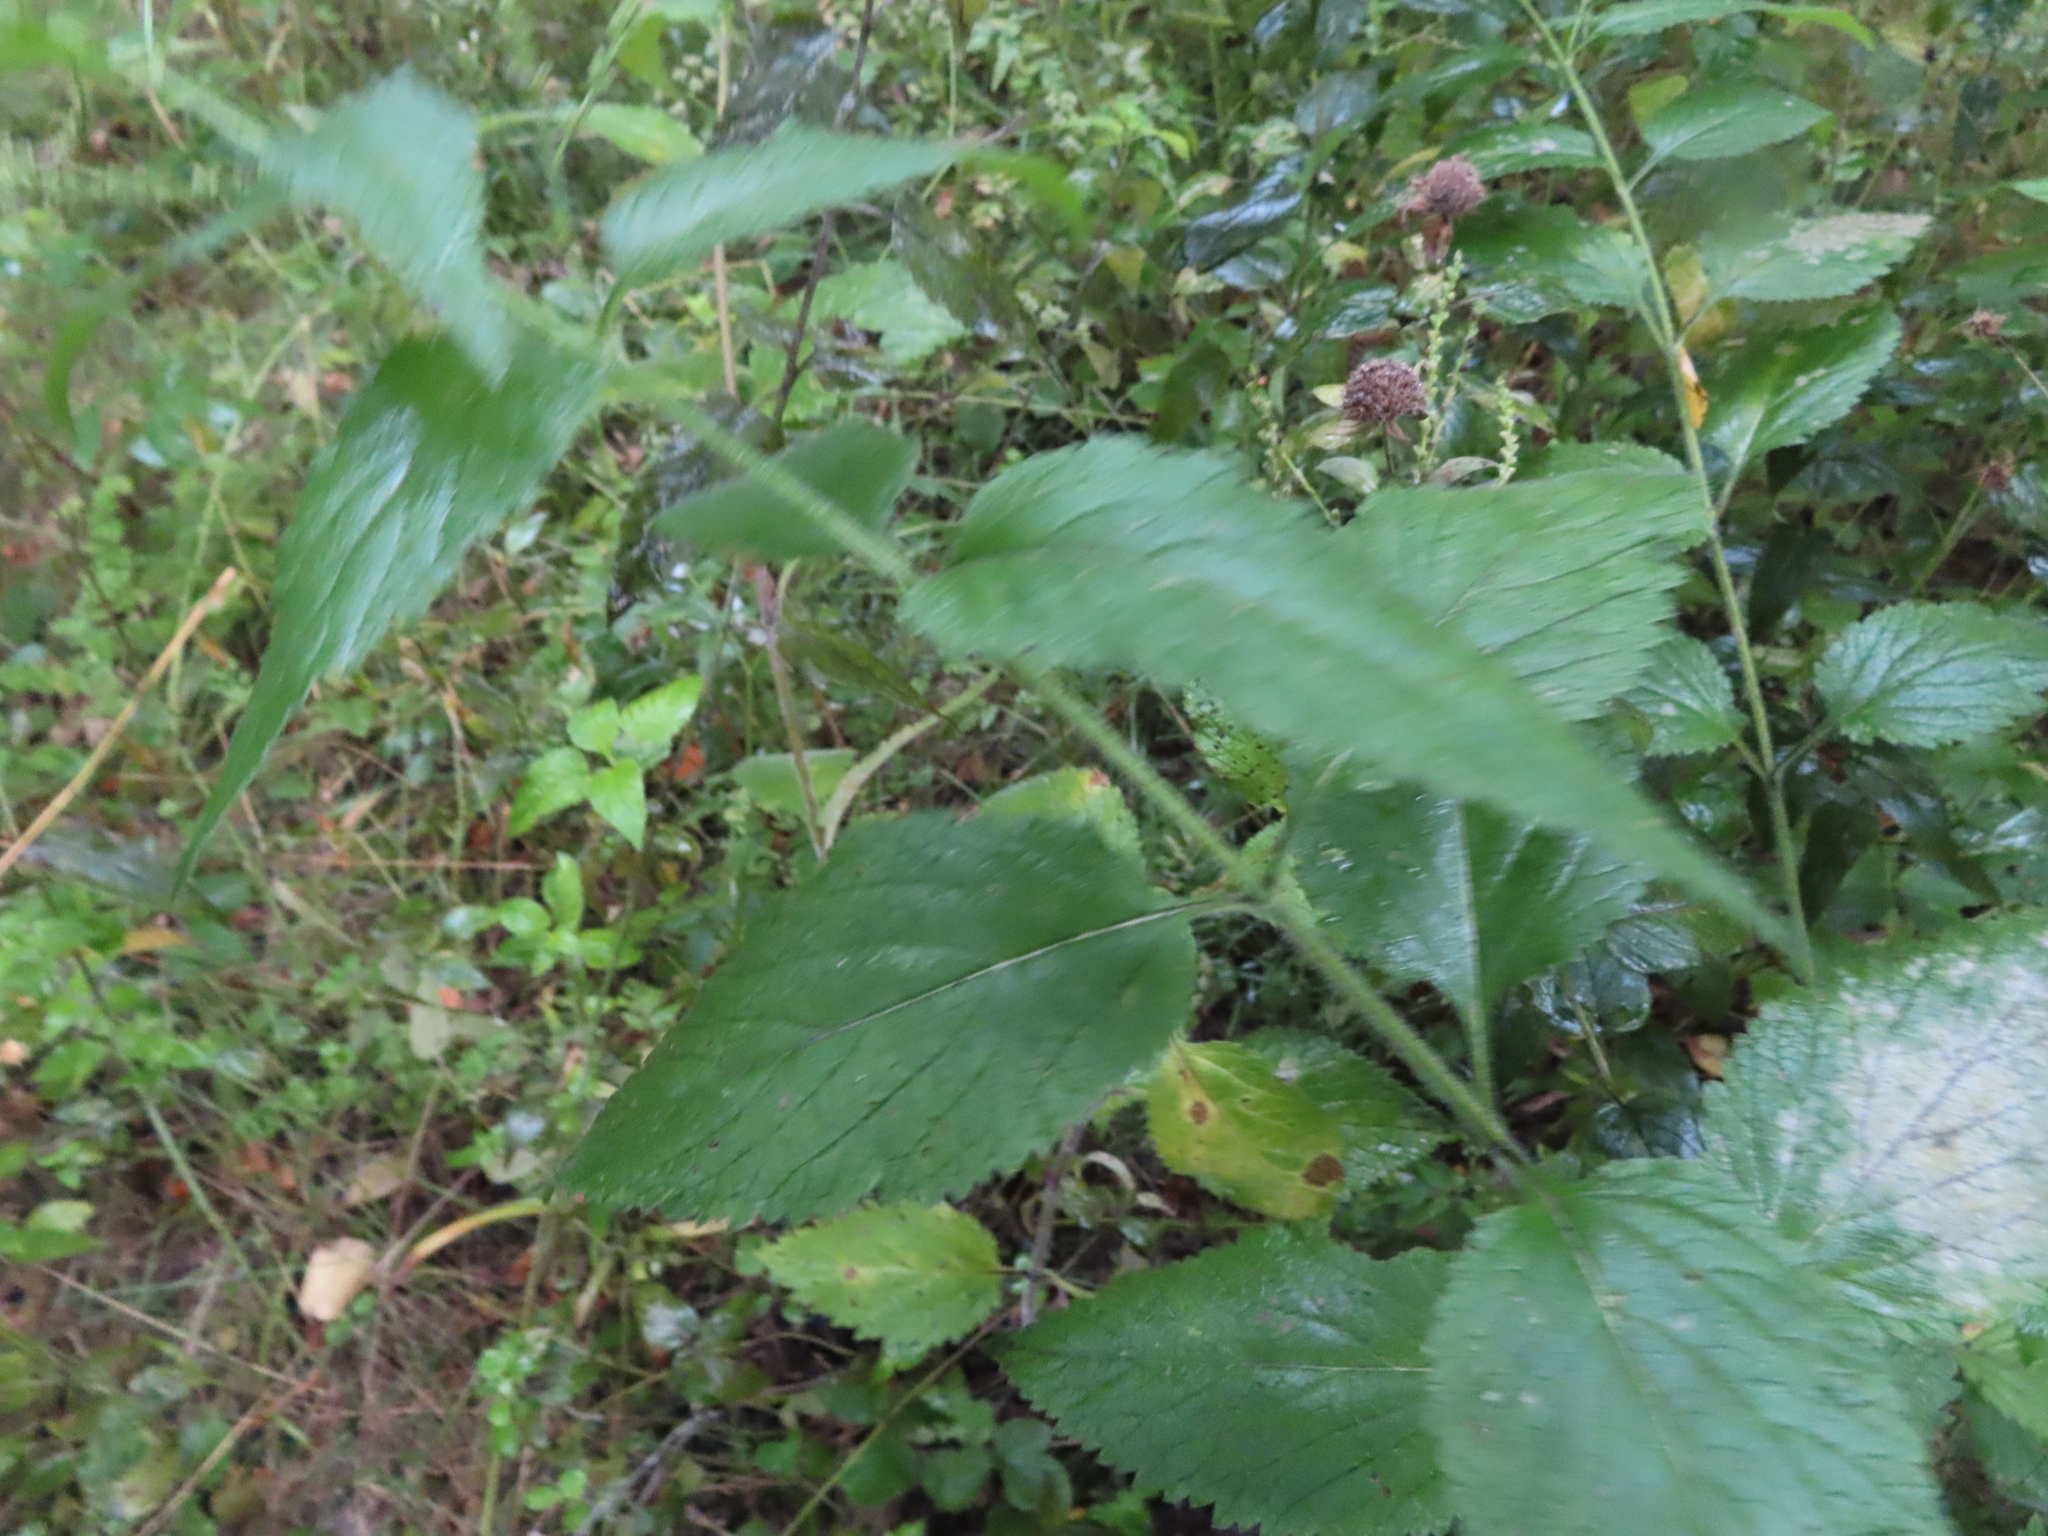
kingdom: Plantae
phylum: Tracheophyta
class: Magnoliopsida
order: Lamiales
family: Verbenaceae
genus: Verbena
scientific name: Verbena urticifolia
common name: Nettle-leaved vervain
